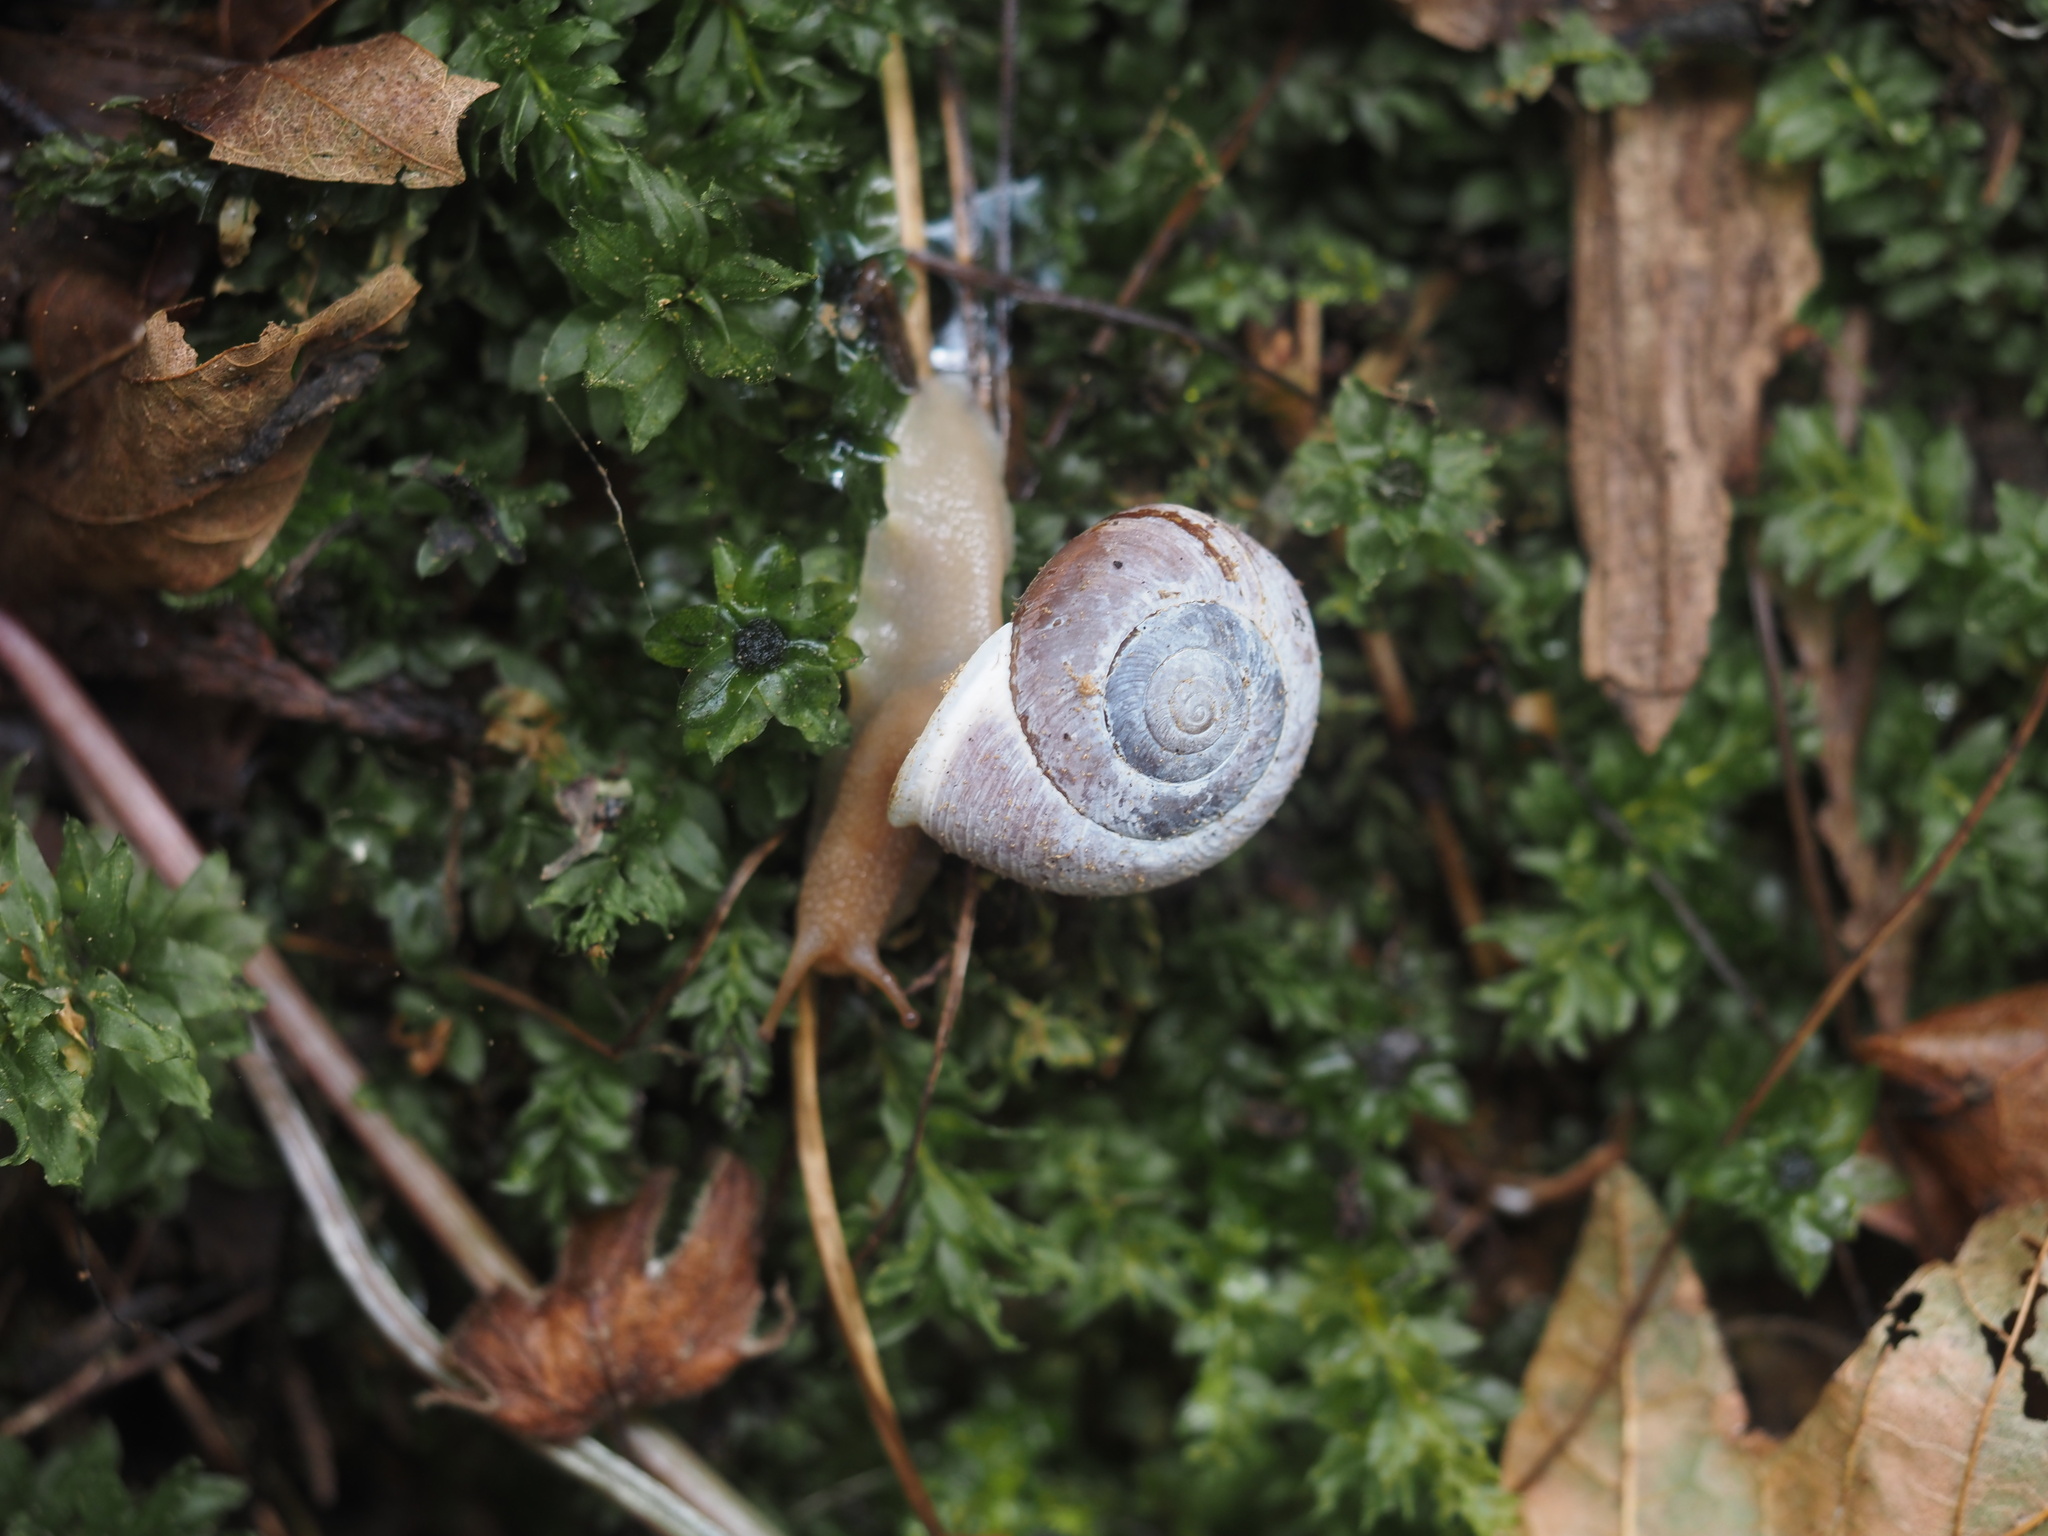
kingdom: Animalia
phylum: Mollusca
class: Gastropoda
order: Stylommatophora
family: Polygyridae
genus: Allogona
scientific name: Allogona townsendiana
